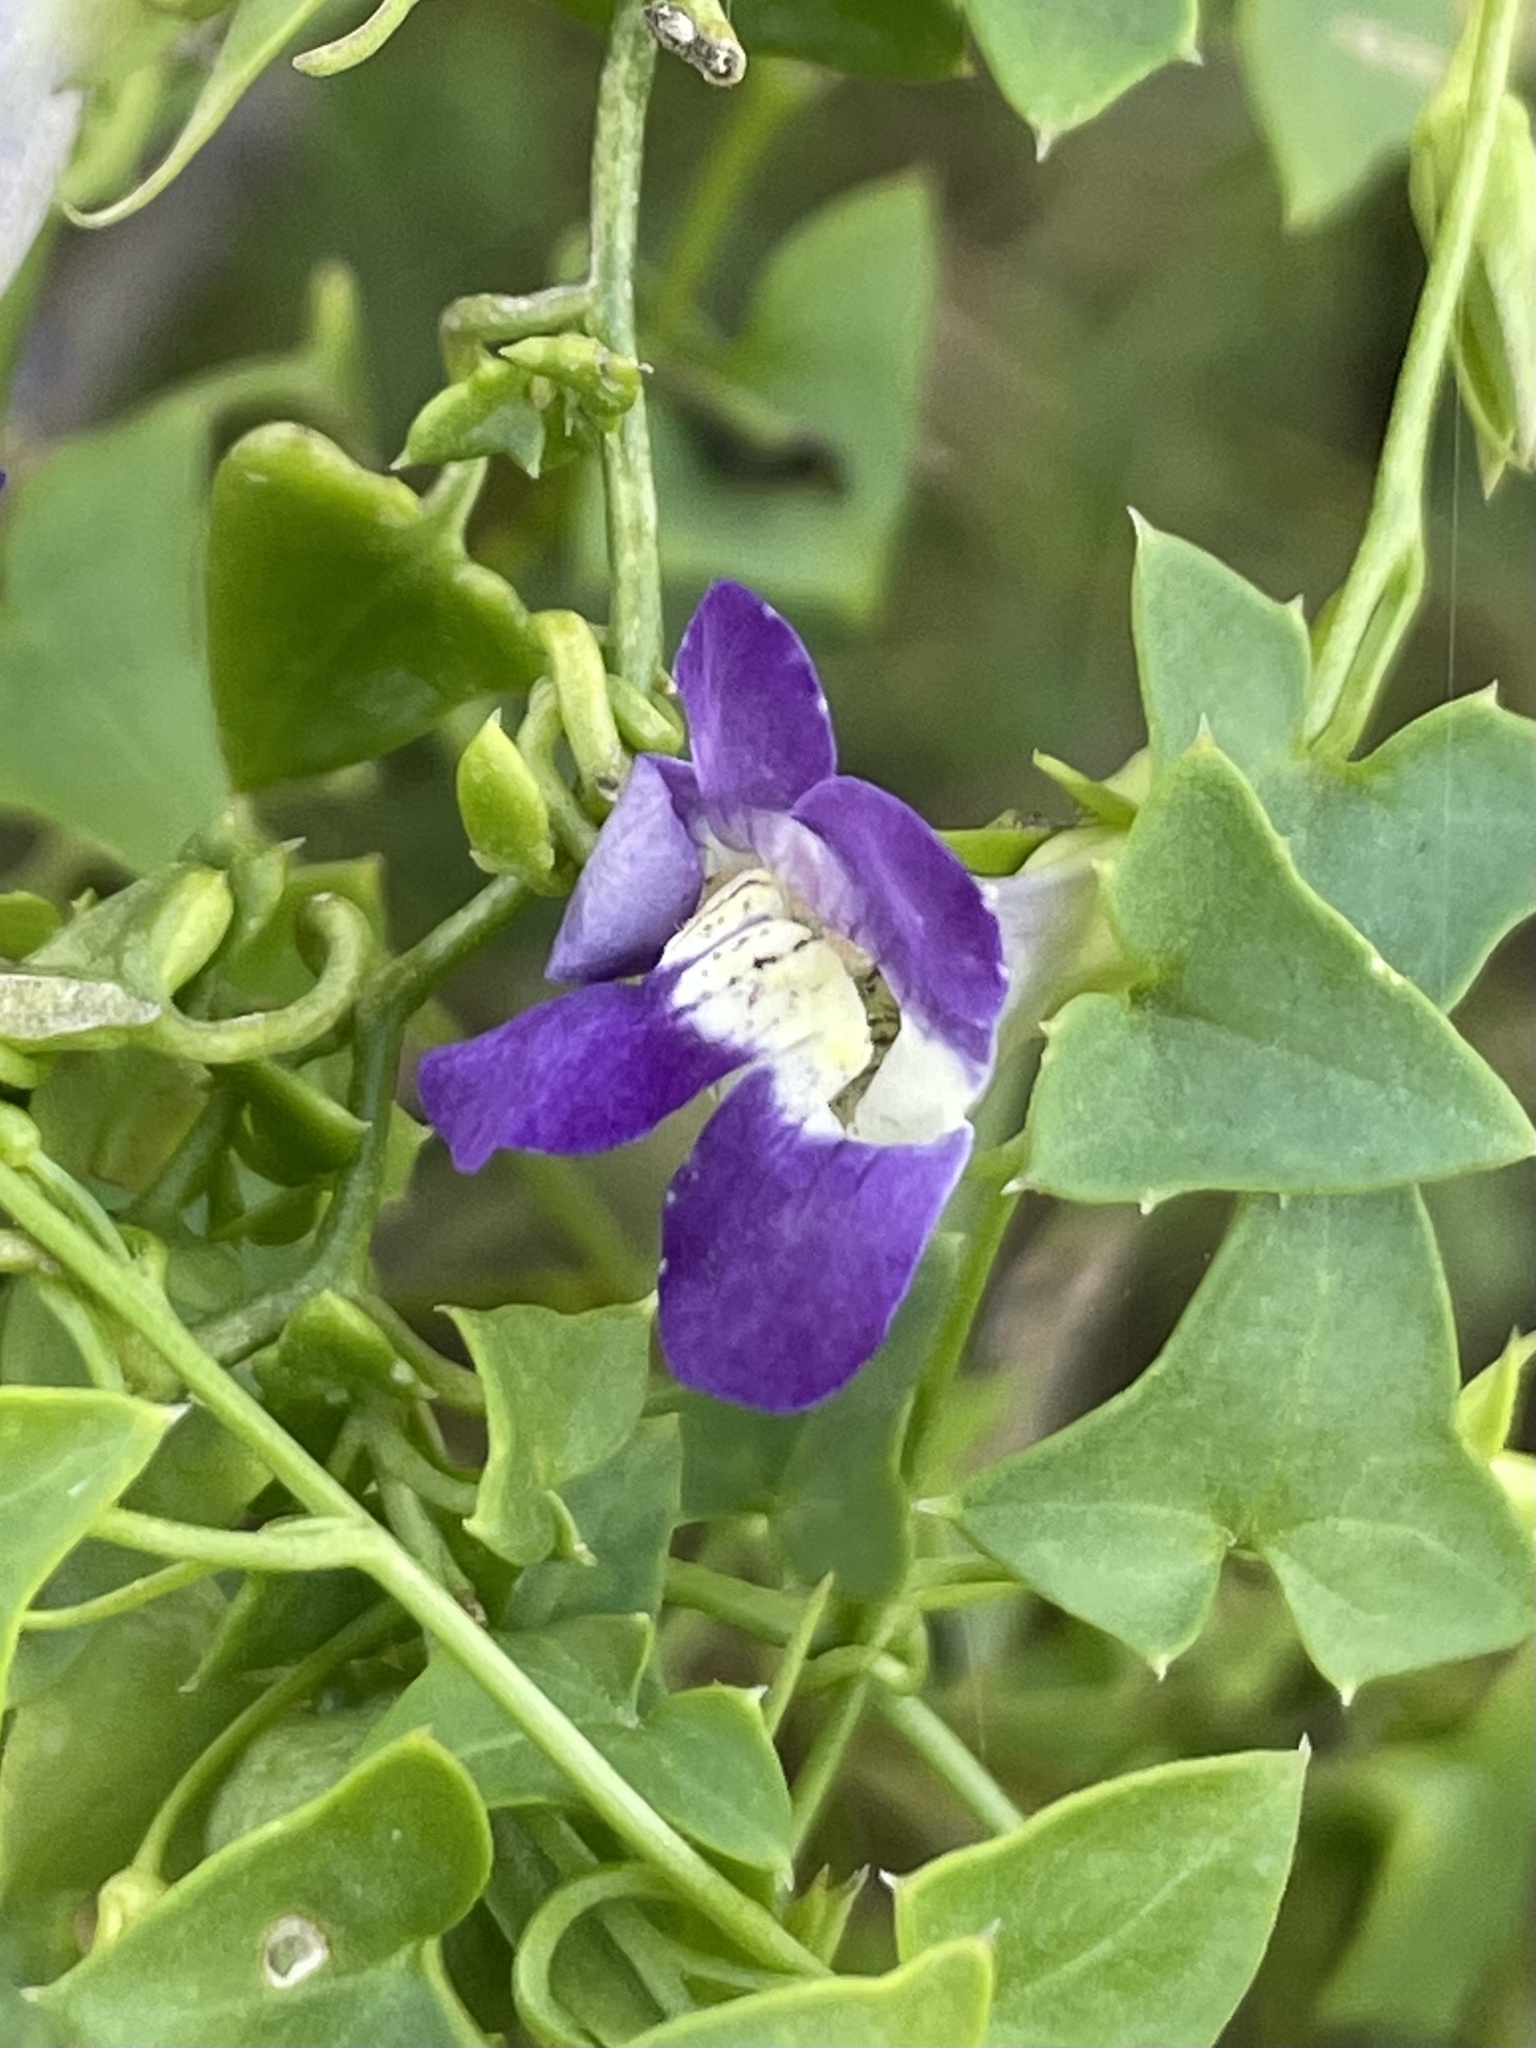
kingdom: Plantae
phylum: Tracheophyta
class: Magnoliopsida
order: Lamiales
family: Plantaginaceae
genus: Maurandella
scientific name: Maurandella antirrhiniflora
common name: Violet twining-snapdragon
